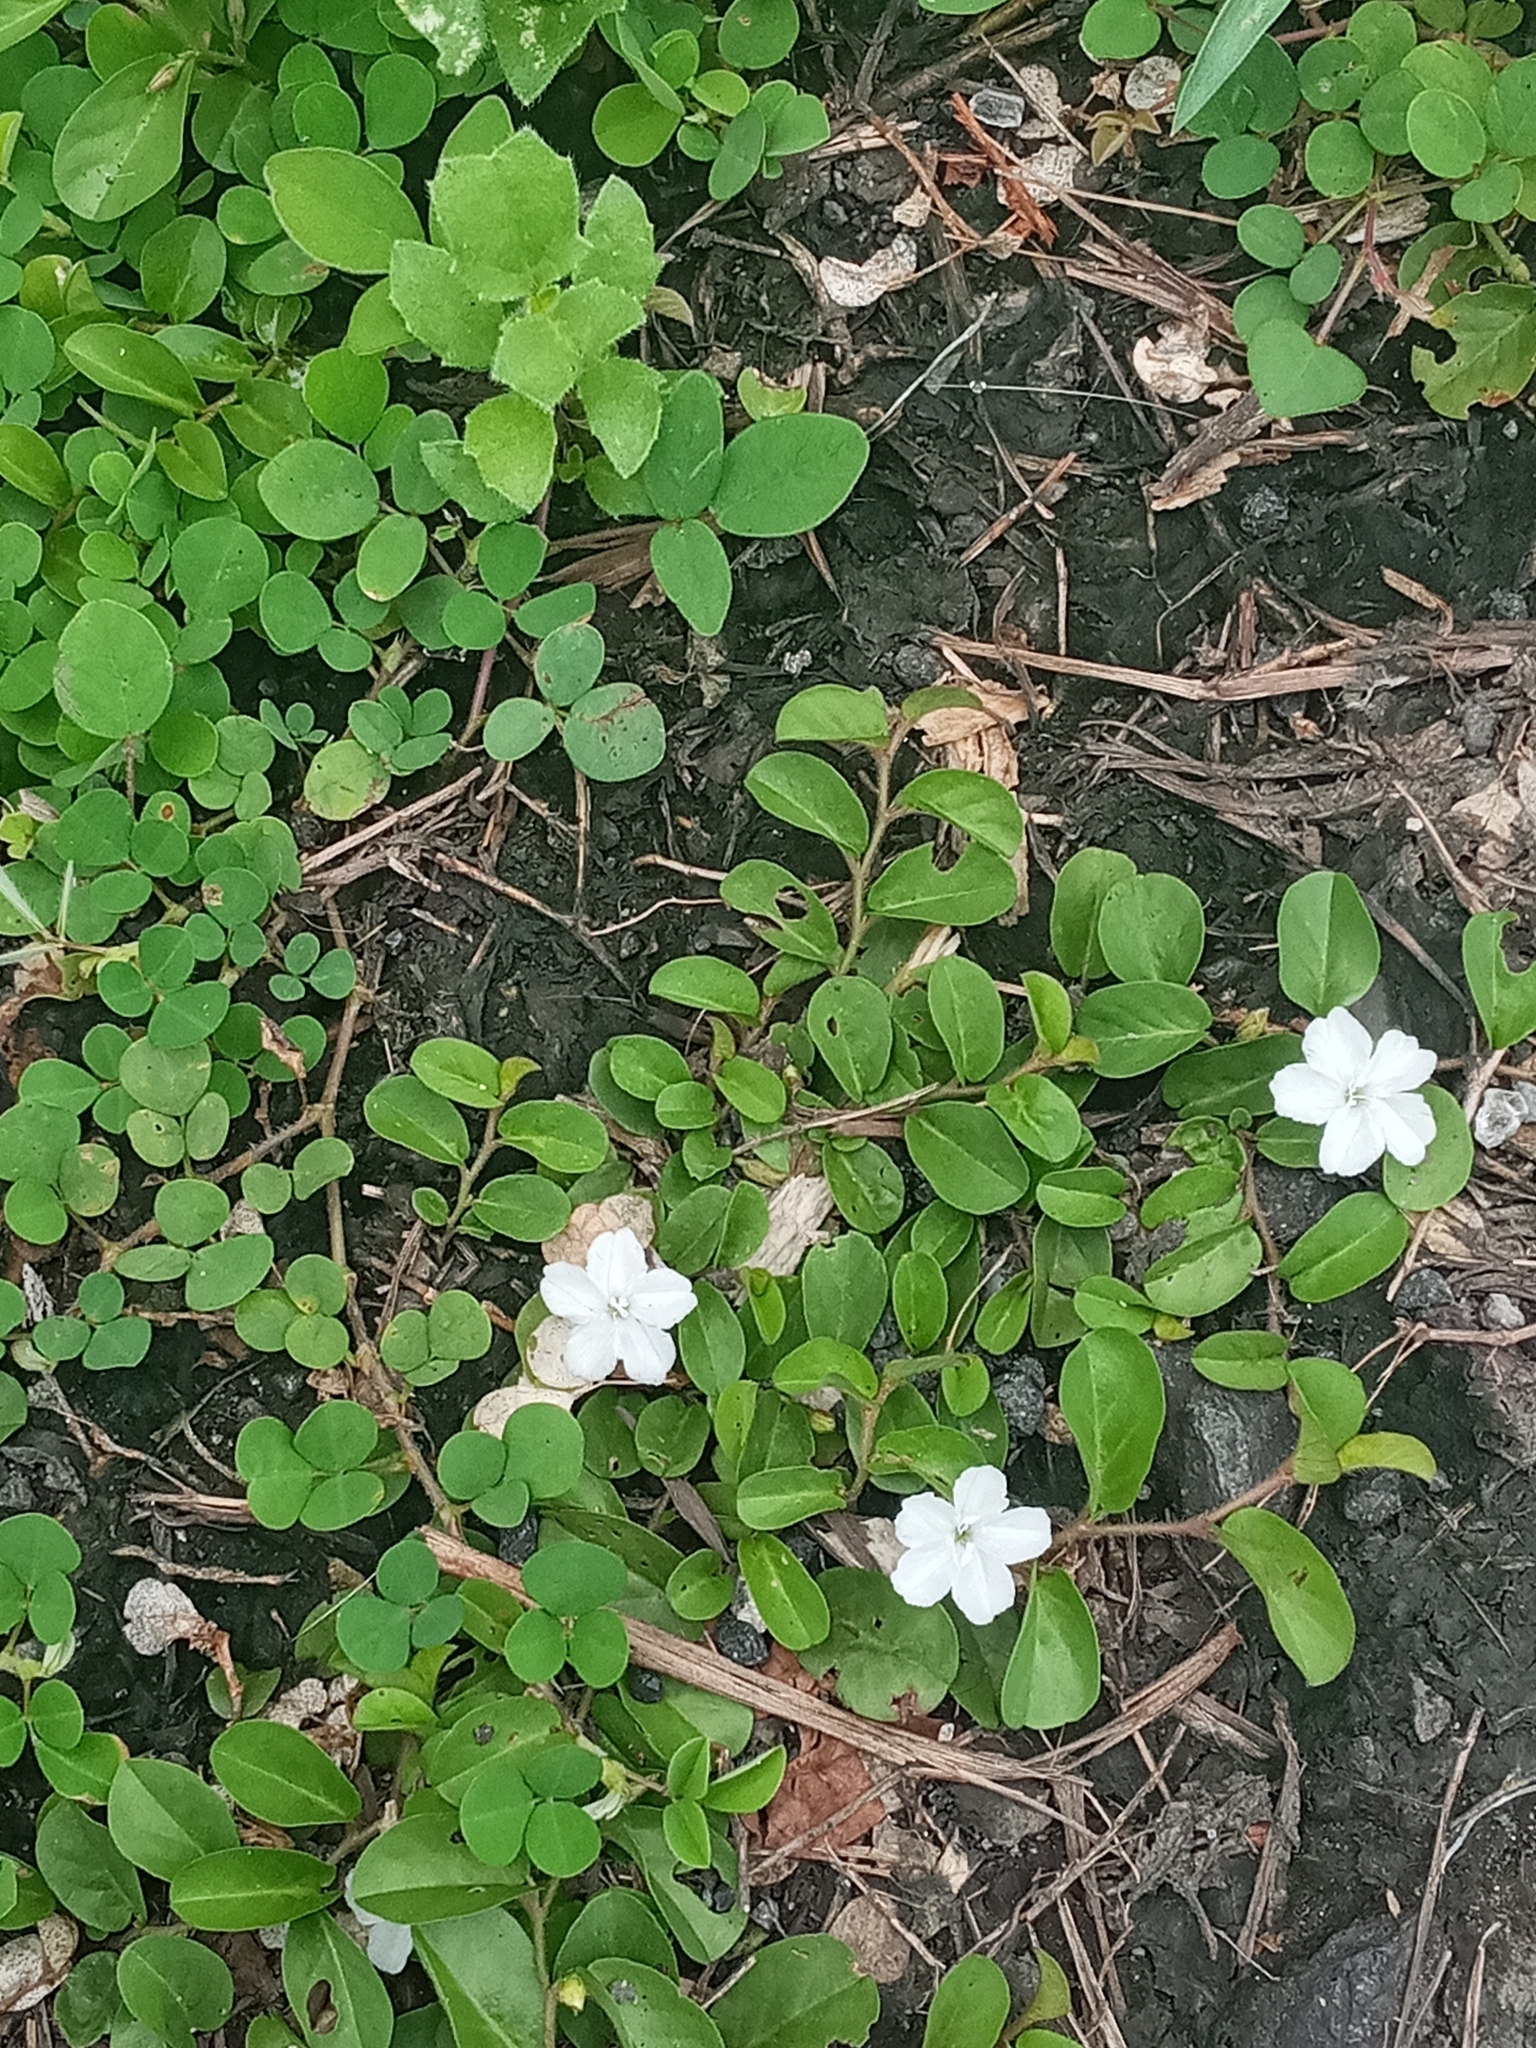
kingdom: Plantae
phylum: Tracheophyta
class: Magnoliopsida
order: Solanales
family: Convolvulaceae
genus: Evolvulus
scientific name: Evolvulus nummularius
